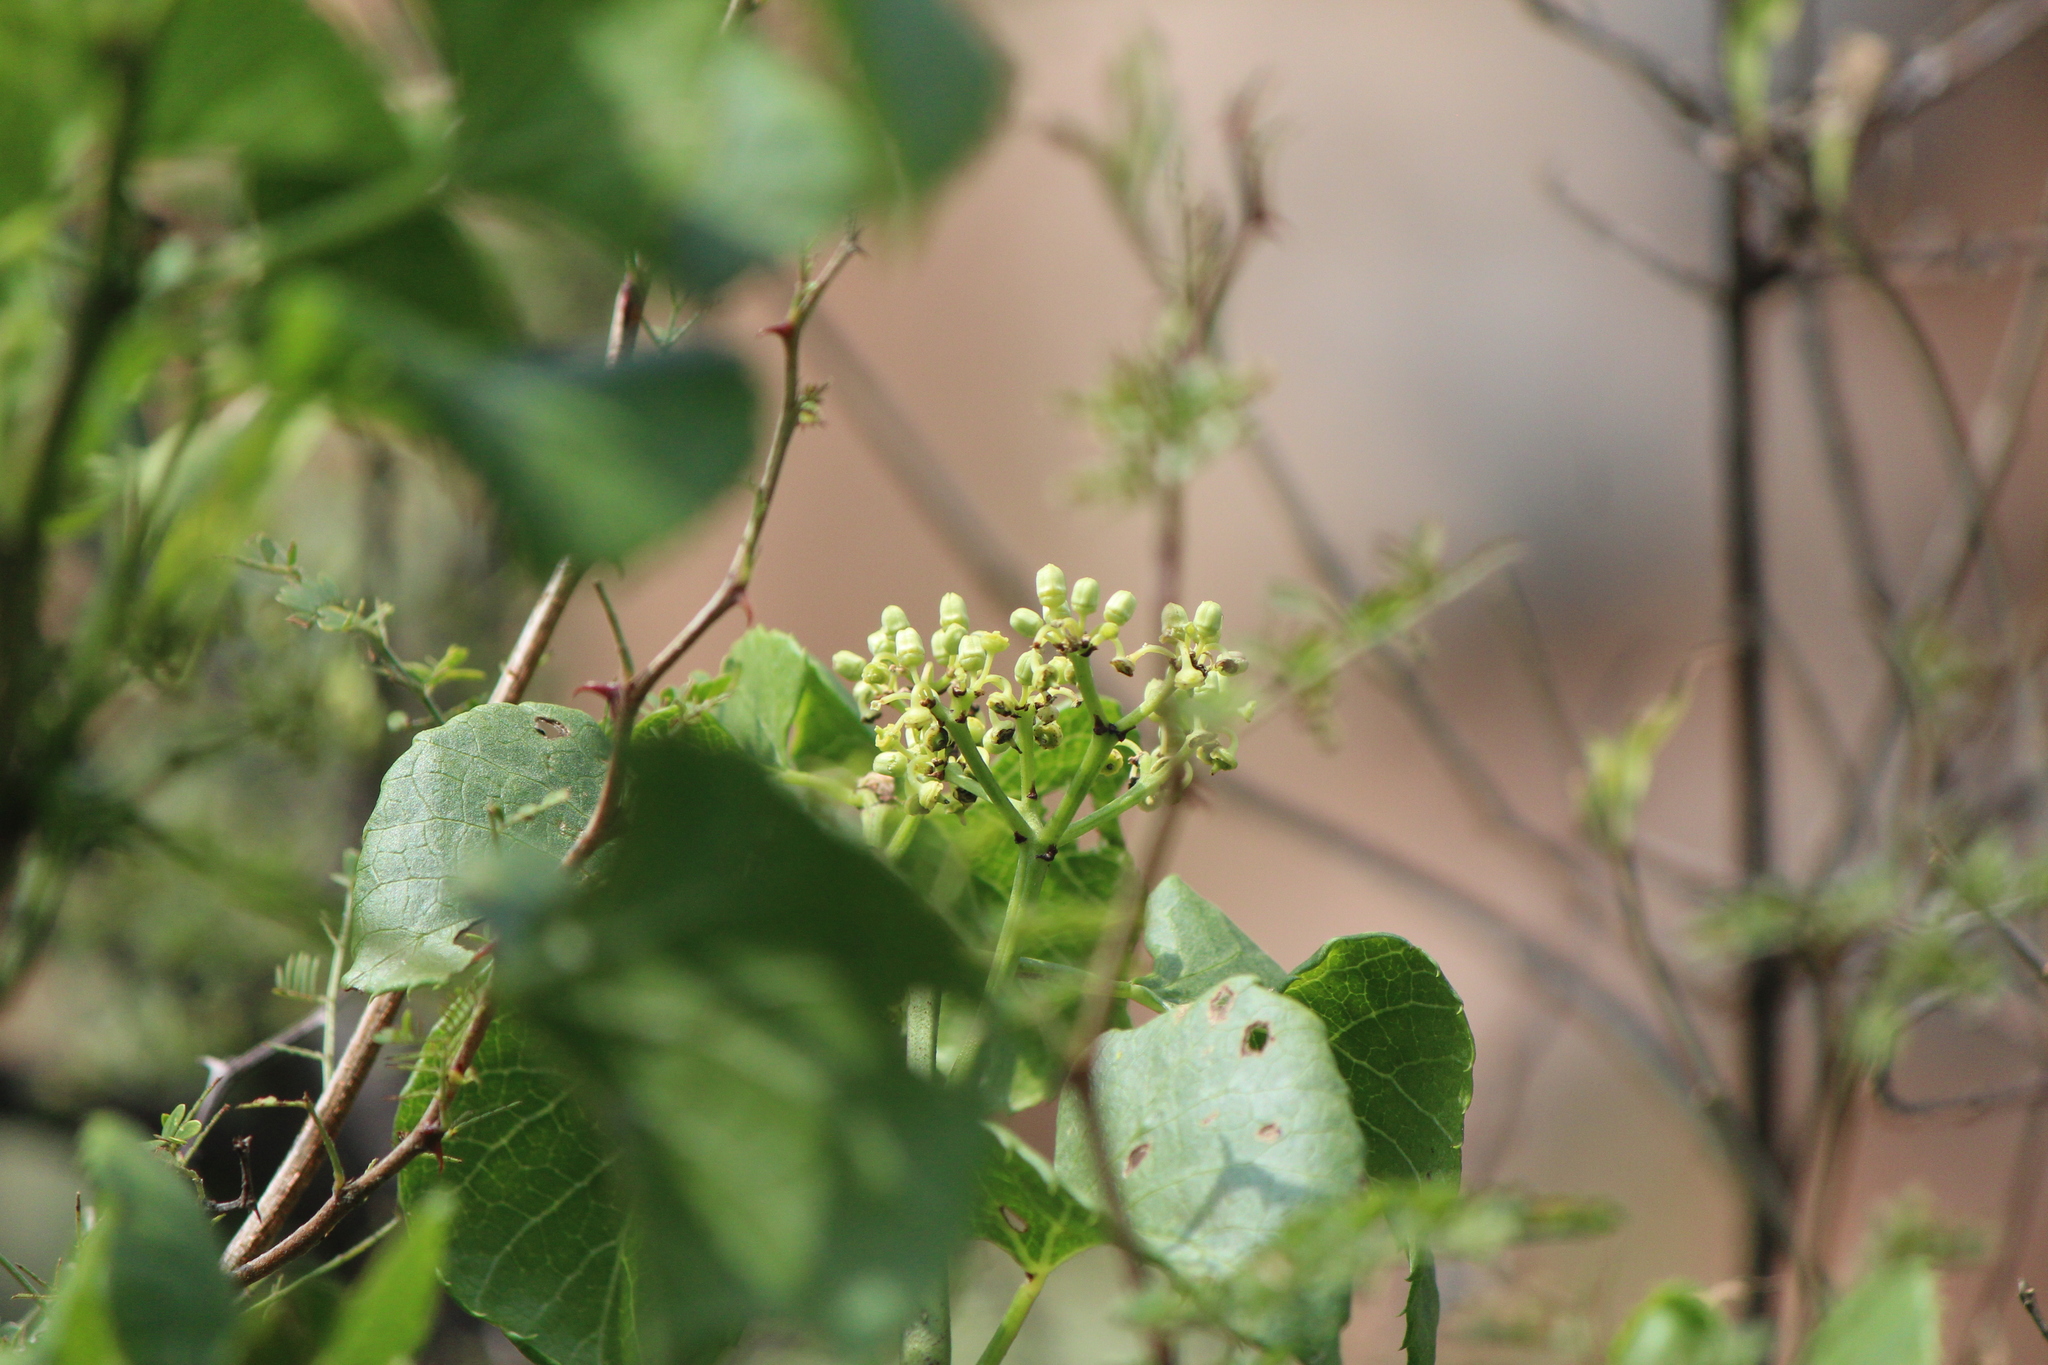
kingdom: Plantae
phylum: Tracheophyta
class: Magnoliopsida
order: Vitales
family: Vitaceae
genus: Cissus
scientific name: Cissus tiliacea
